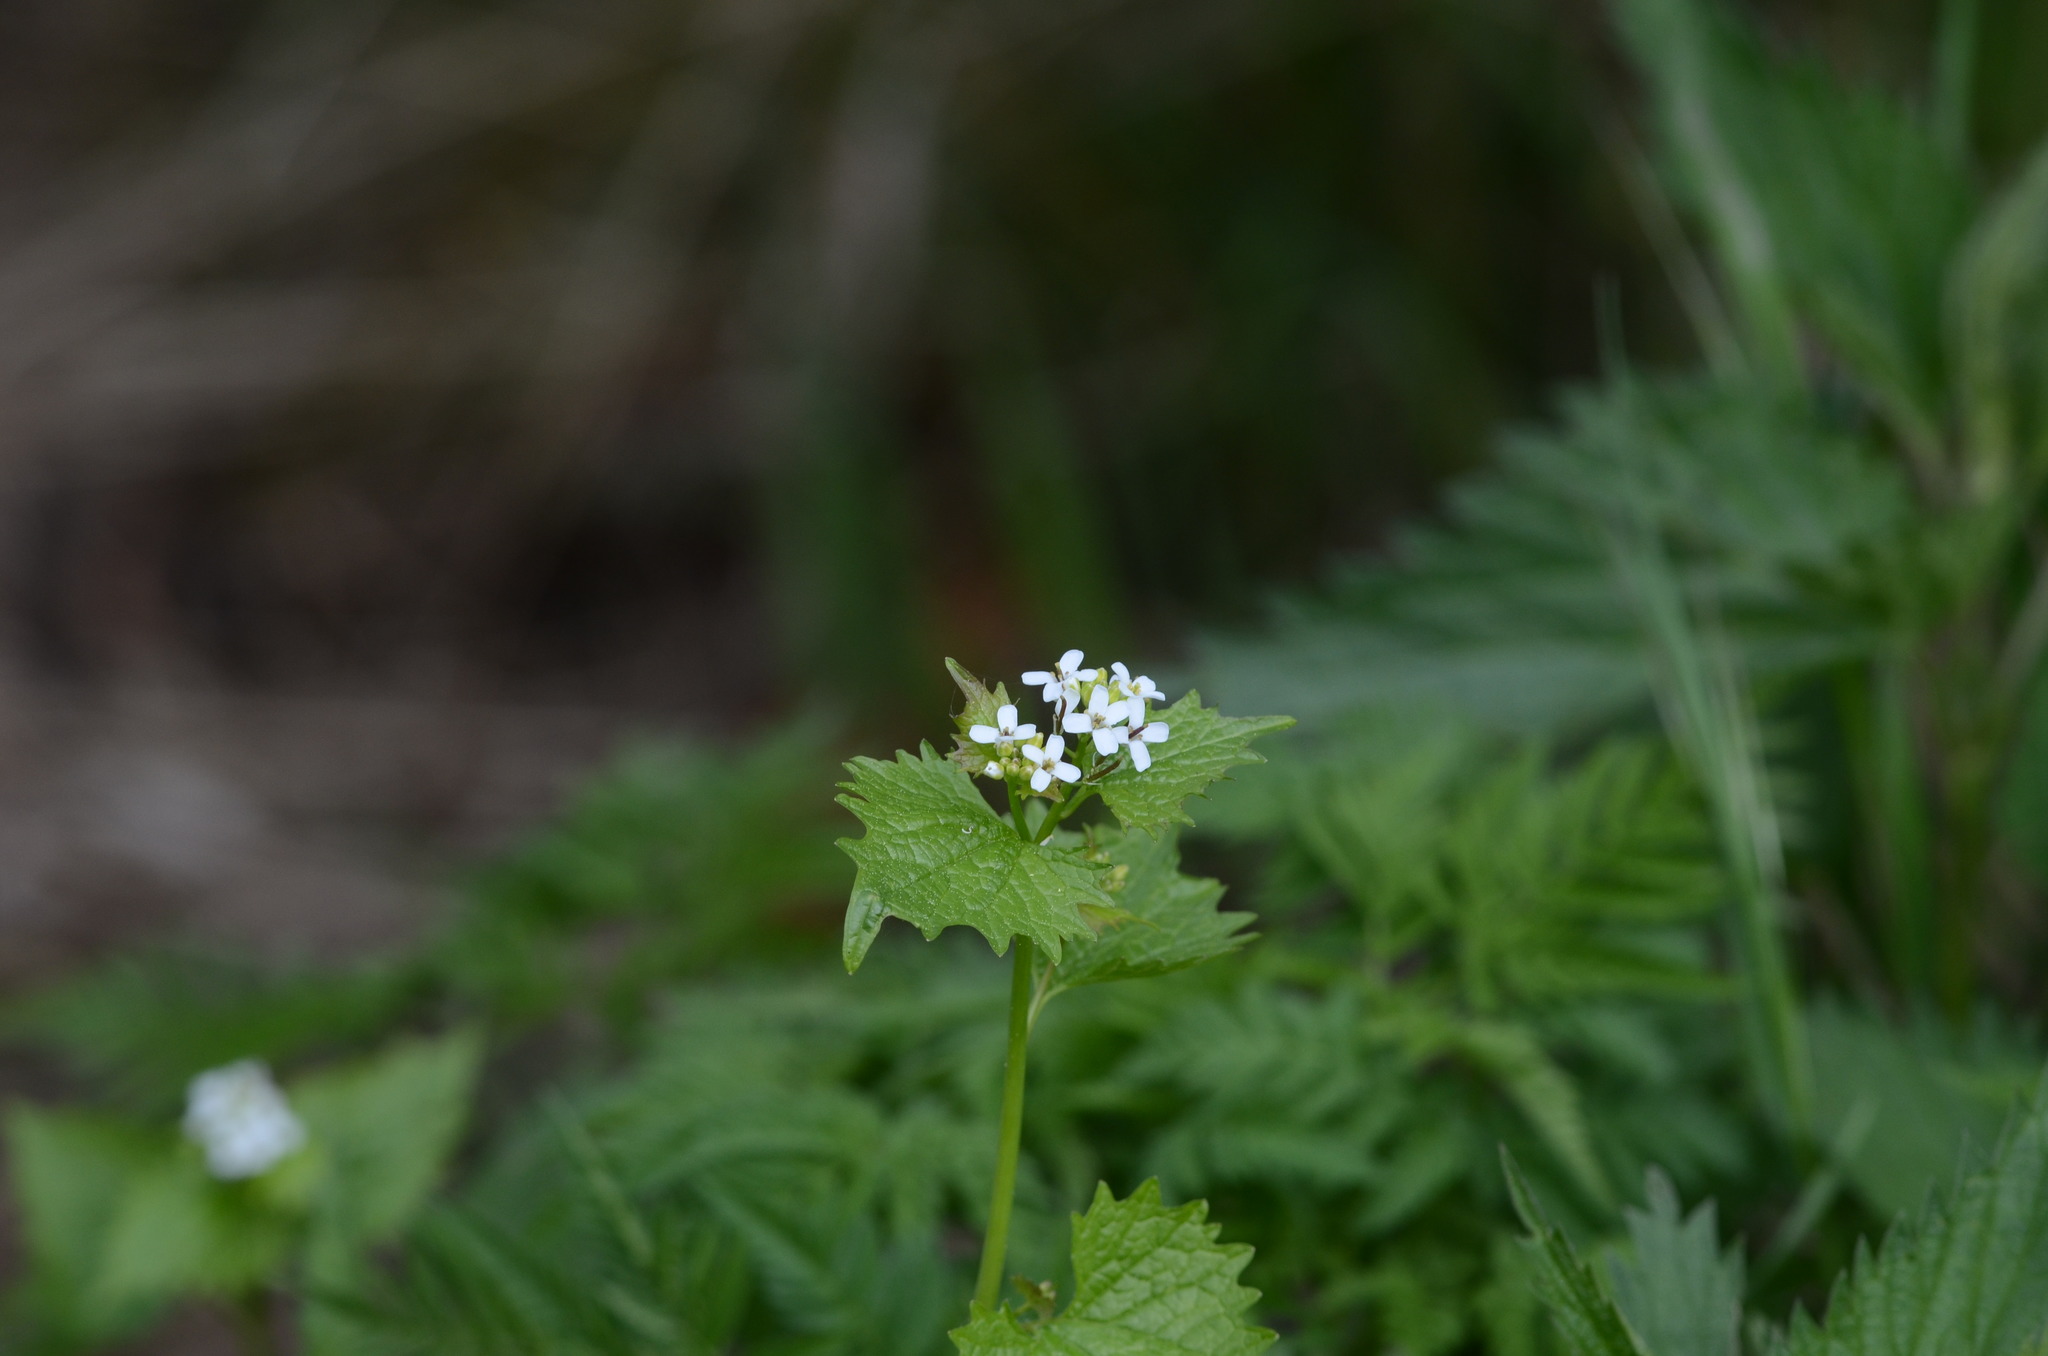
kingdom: Plantae
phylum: Tracheophyta
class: Magnoliopsida
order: Brassicales
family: Brassicaceae
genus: Alliaria
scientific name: Alliaria petiolata
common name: Garlic mustard
